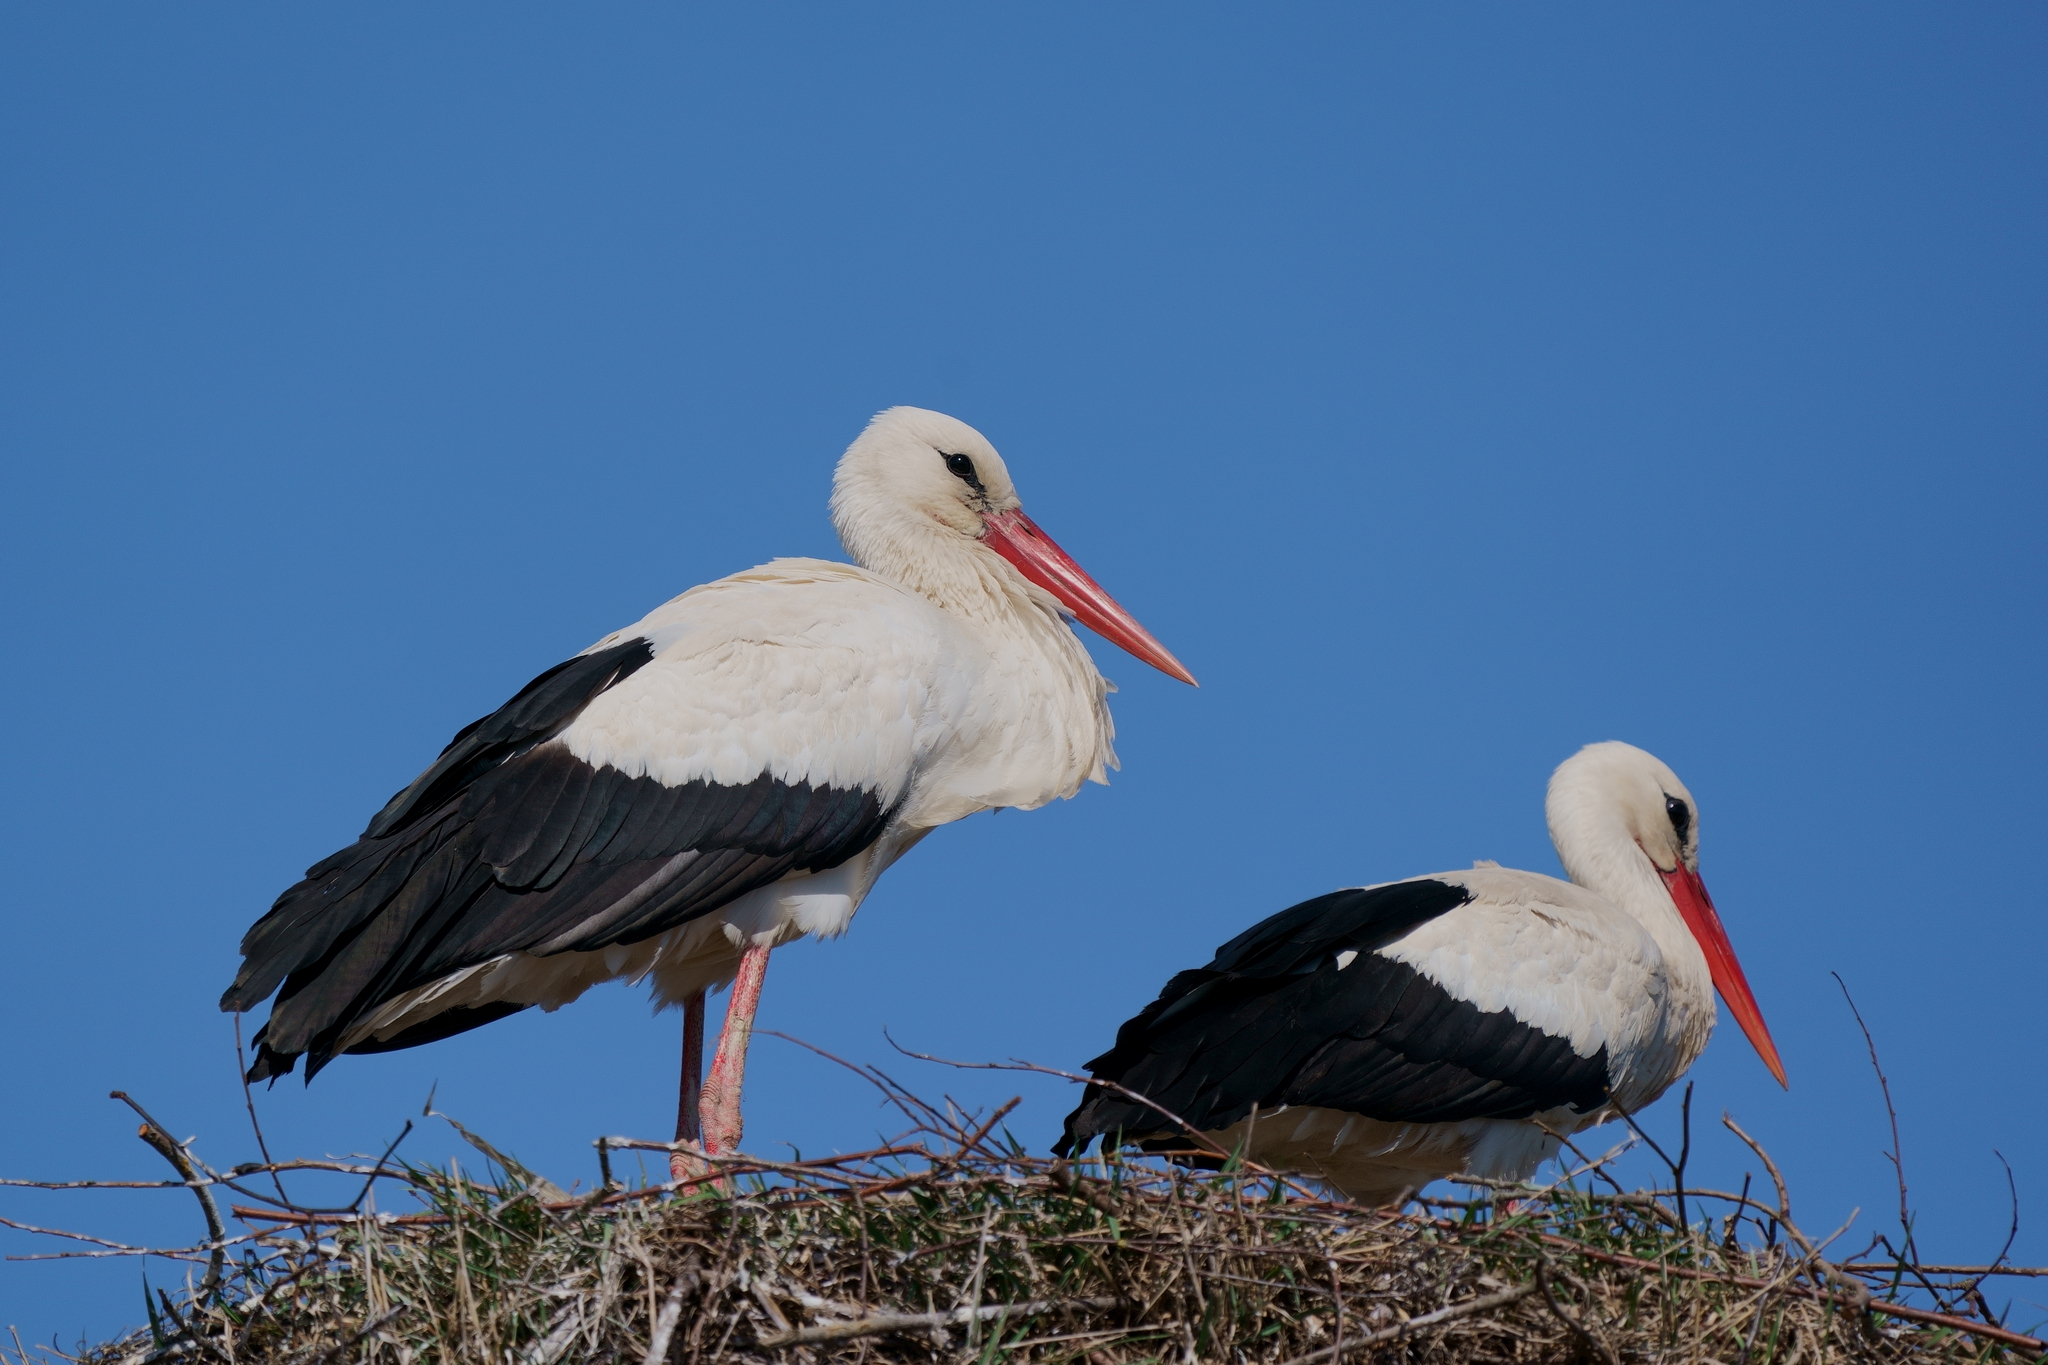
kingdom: Animalia
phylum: Chordata
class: Aves
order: Ciconiiformes
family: Ciconiidae
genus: Ciconia
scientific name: Ciconia ciconia
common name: White stork
